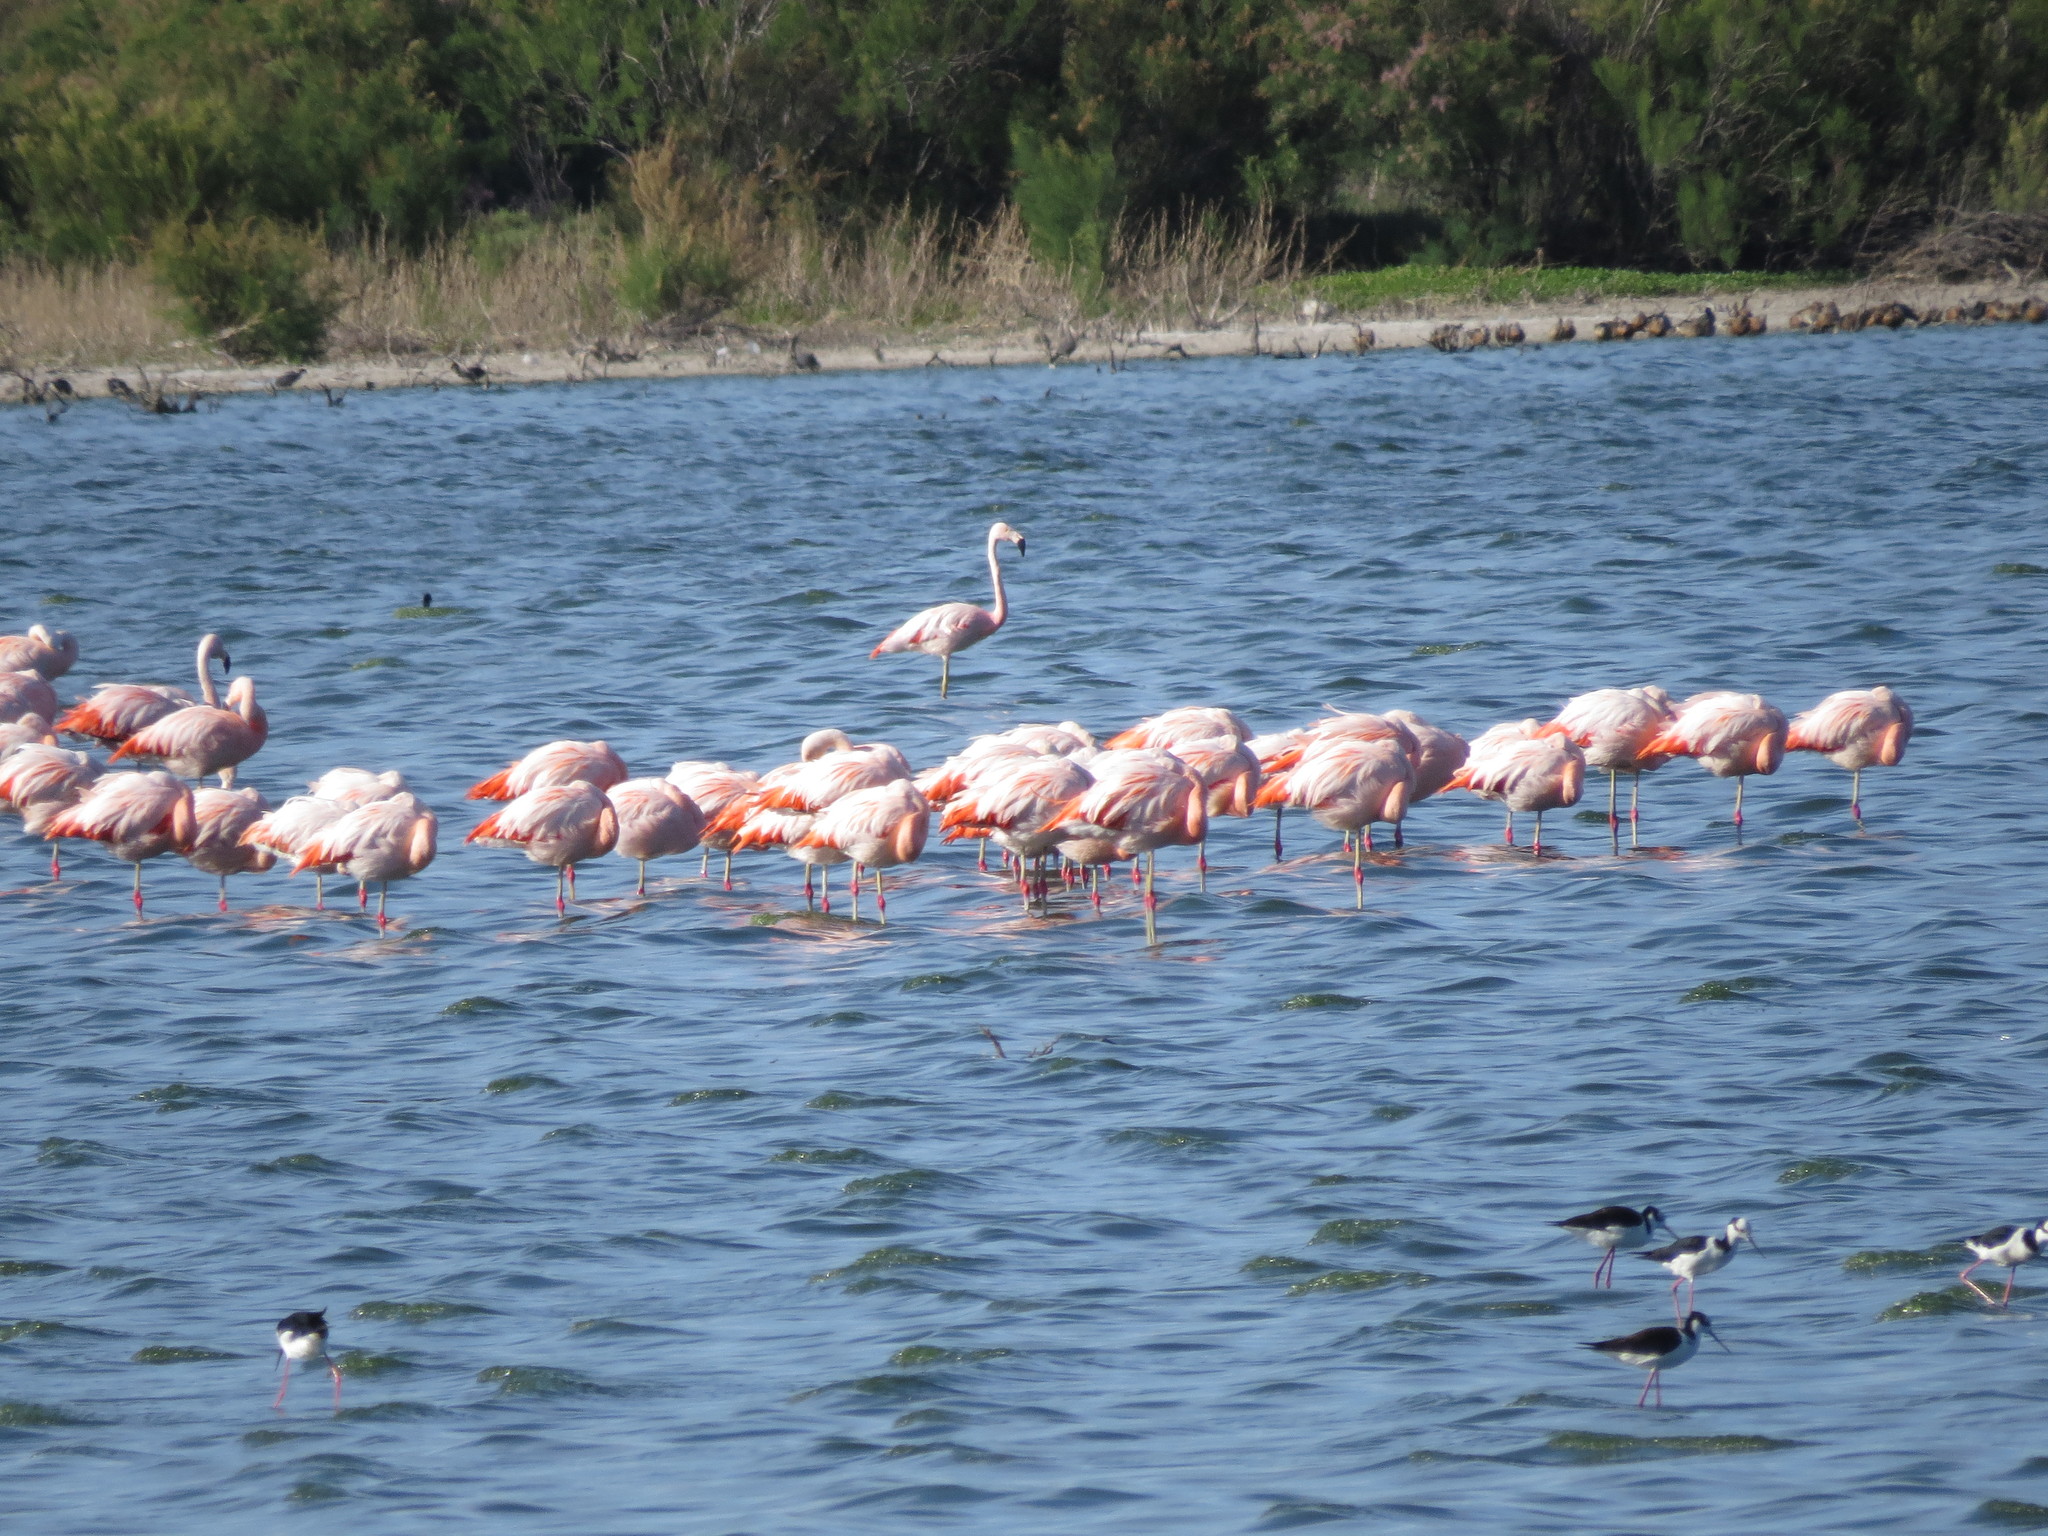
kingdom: Animalia
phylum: Chordata
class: Aves
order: Phoenicopteriformes
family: Phoenicopteridae
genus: Phoenicopterus
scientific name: Phoenicopterus chilensis
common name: Chilean flamingo
